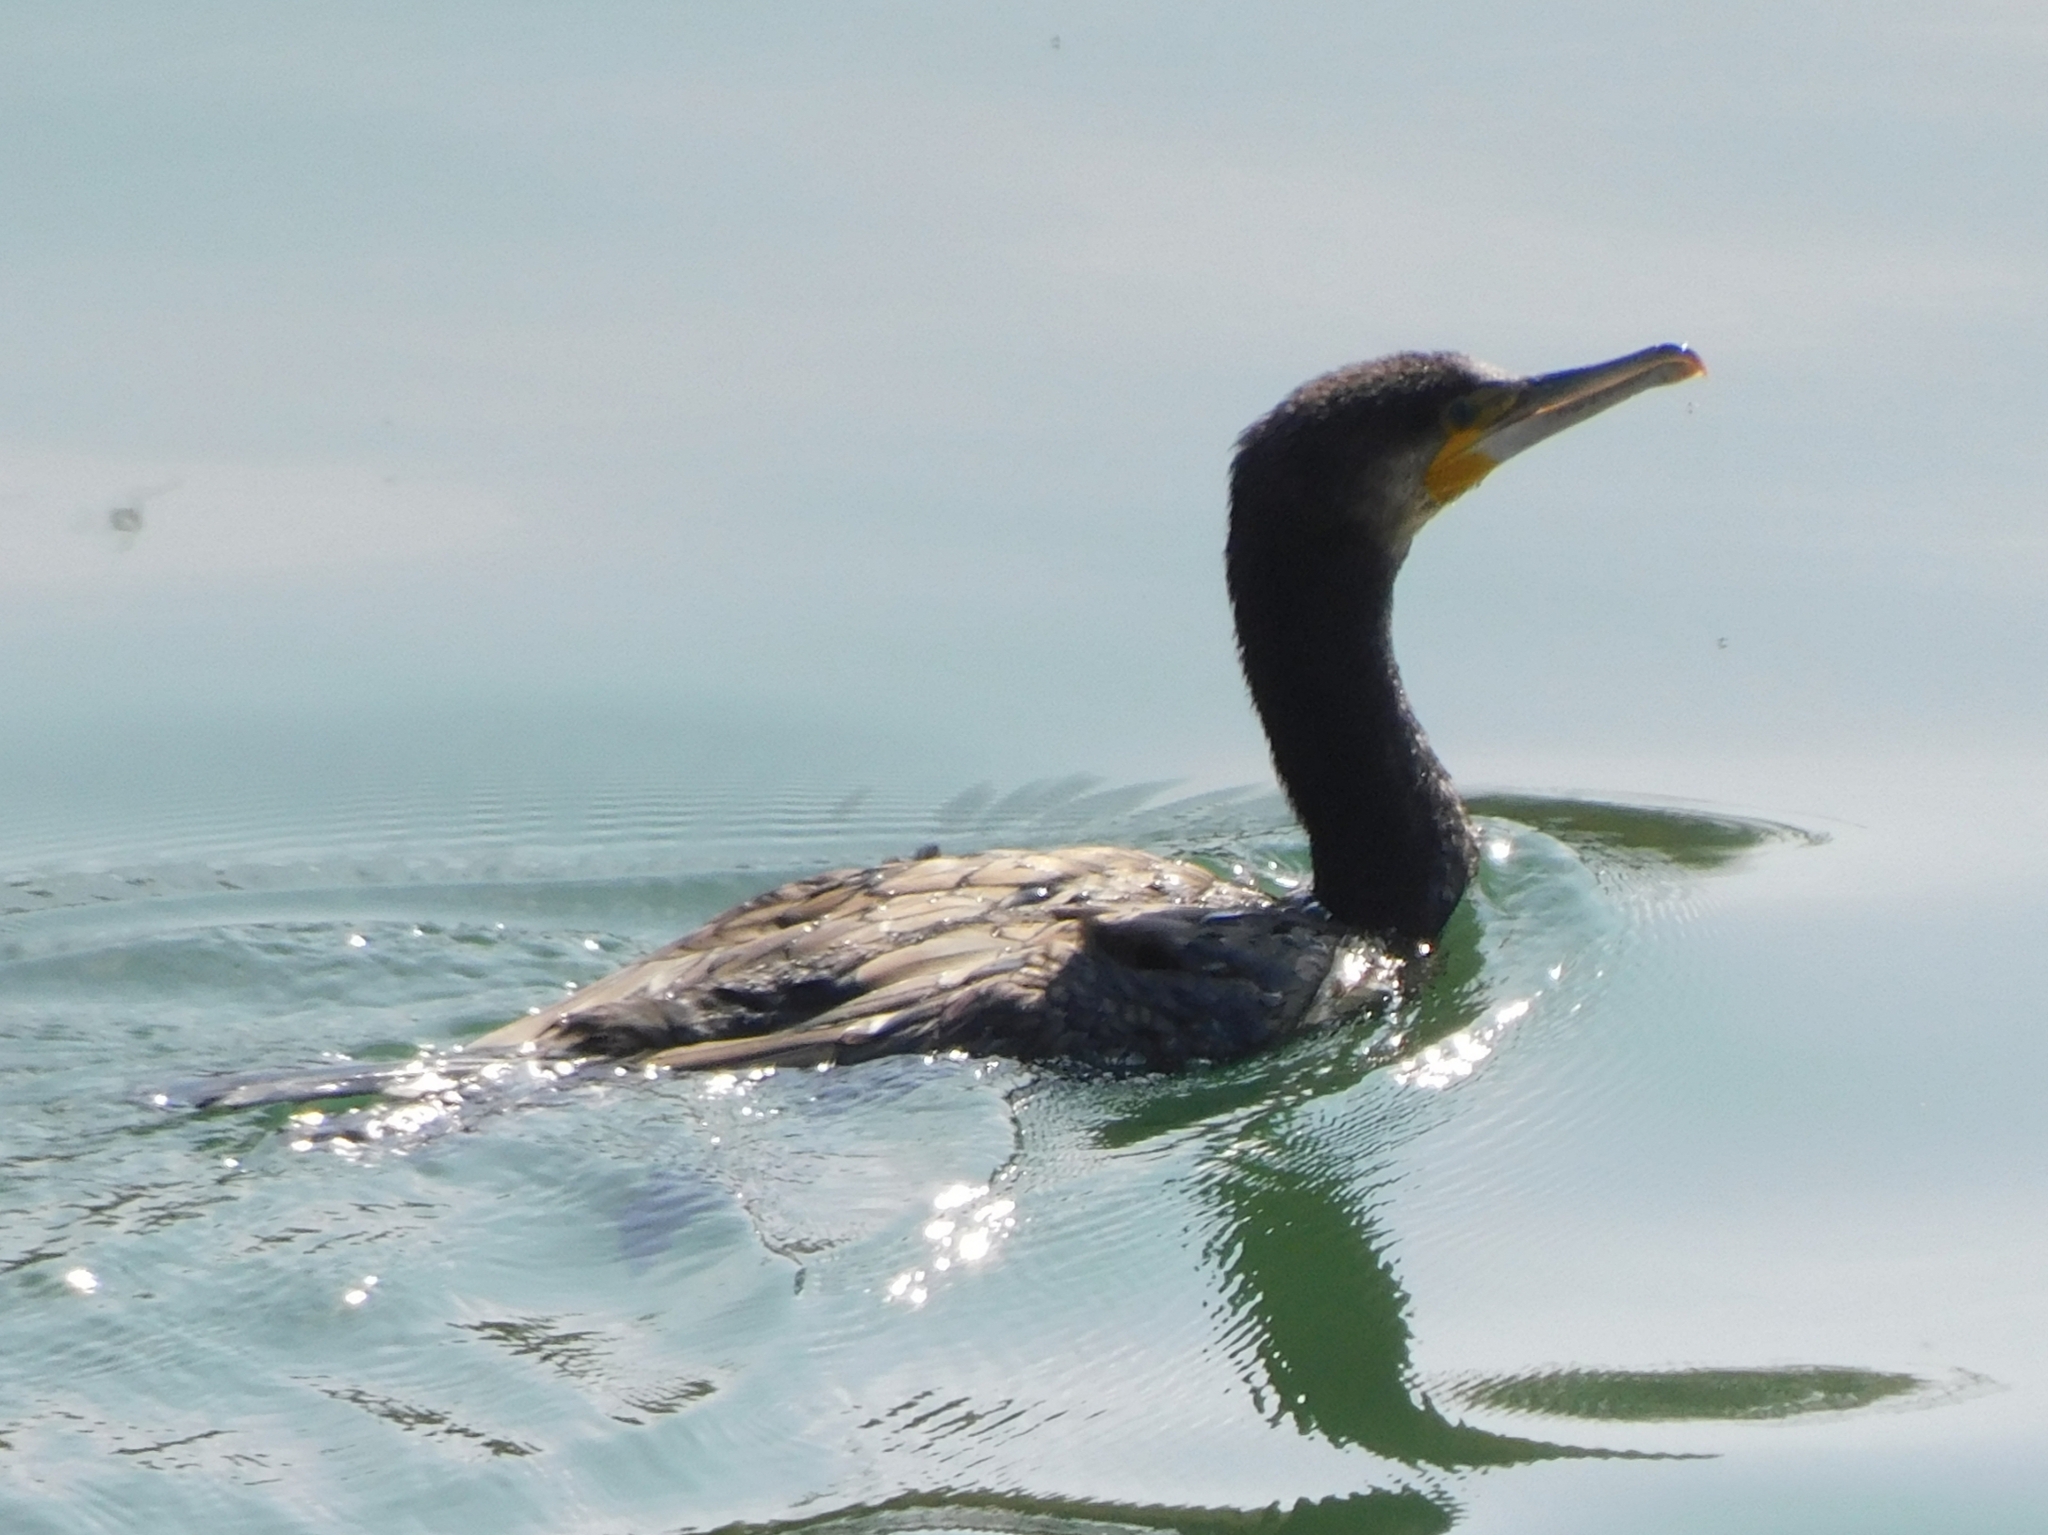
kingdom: Animalia
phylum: Chordata
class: Aves
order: Suliformes
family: Phalacrocoracidae
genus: Phalacrocorax
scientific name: Phalacrocorax carbo
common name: Great cormorant
